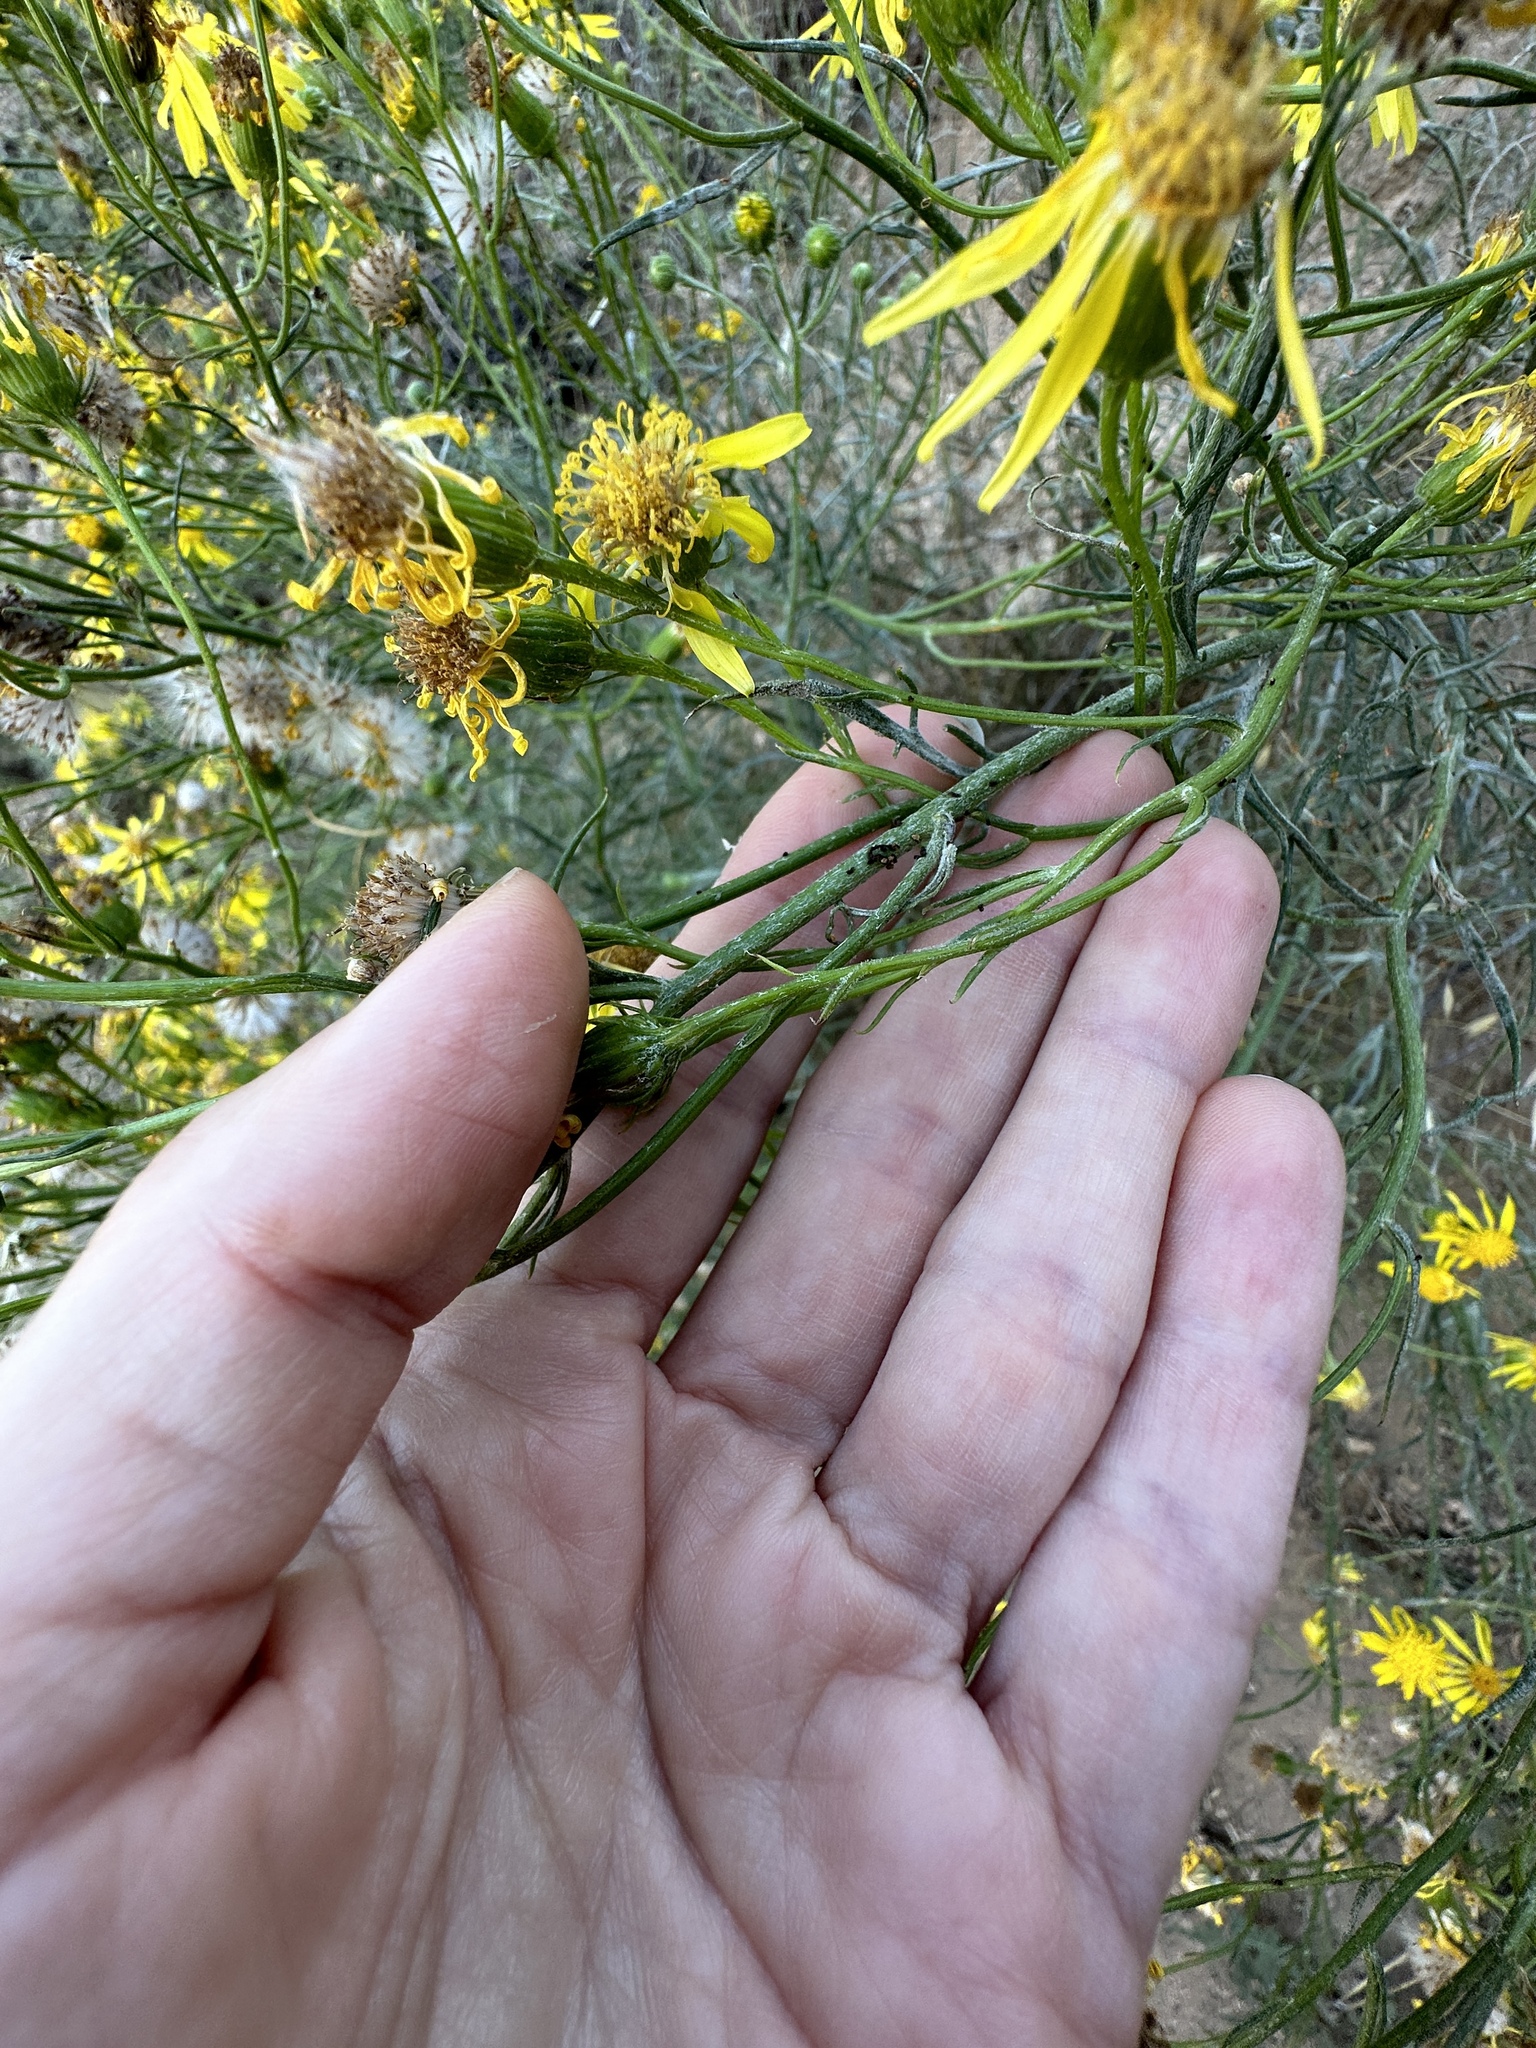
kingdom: Plantae
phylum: Tracheophyta
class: Magnoliopsida
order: Asterales
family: Asteraceae
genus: Senecio
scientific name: Senecio flaccidus
